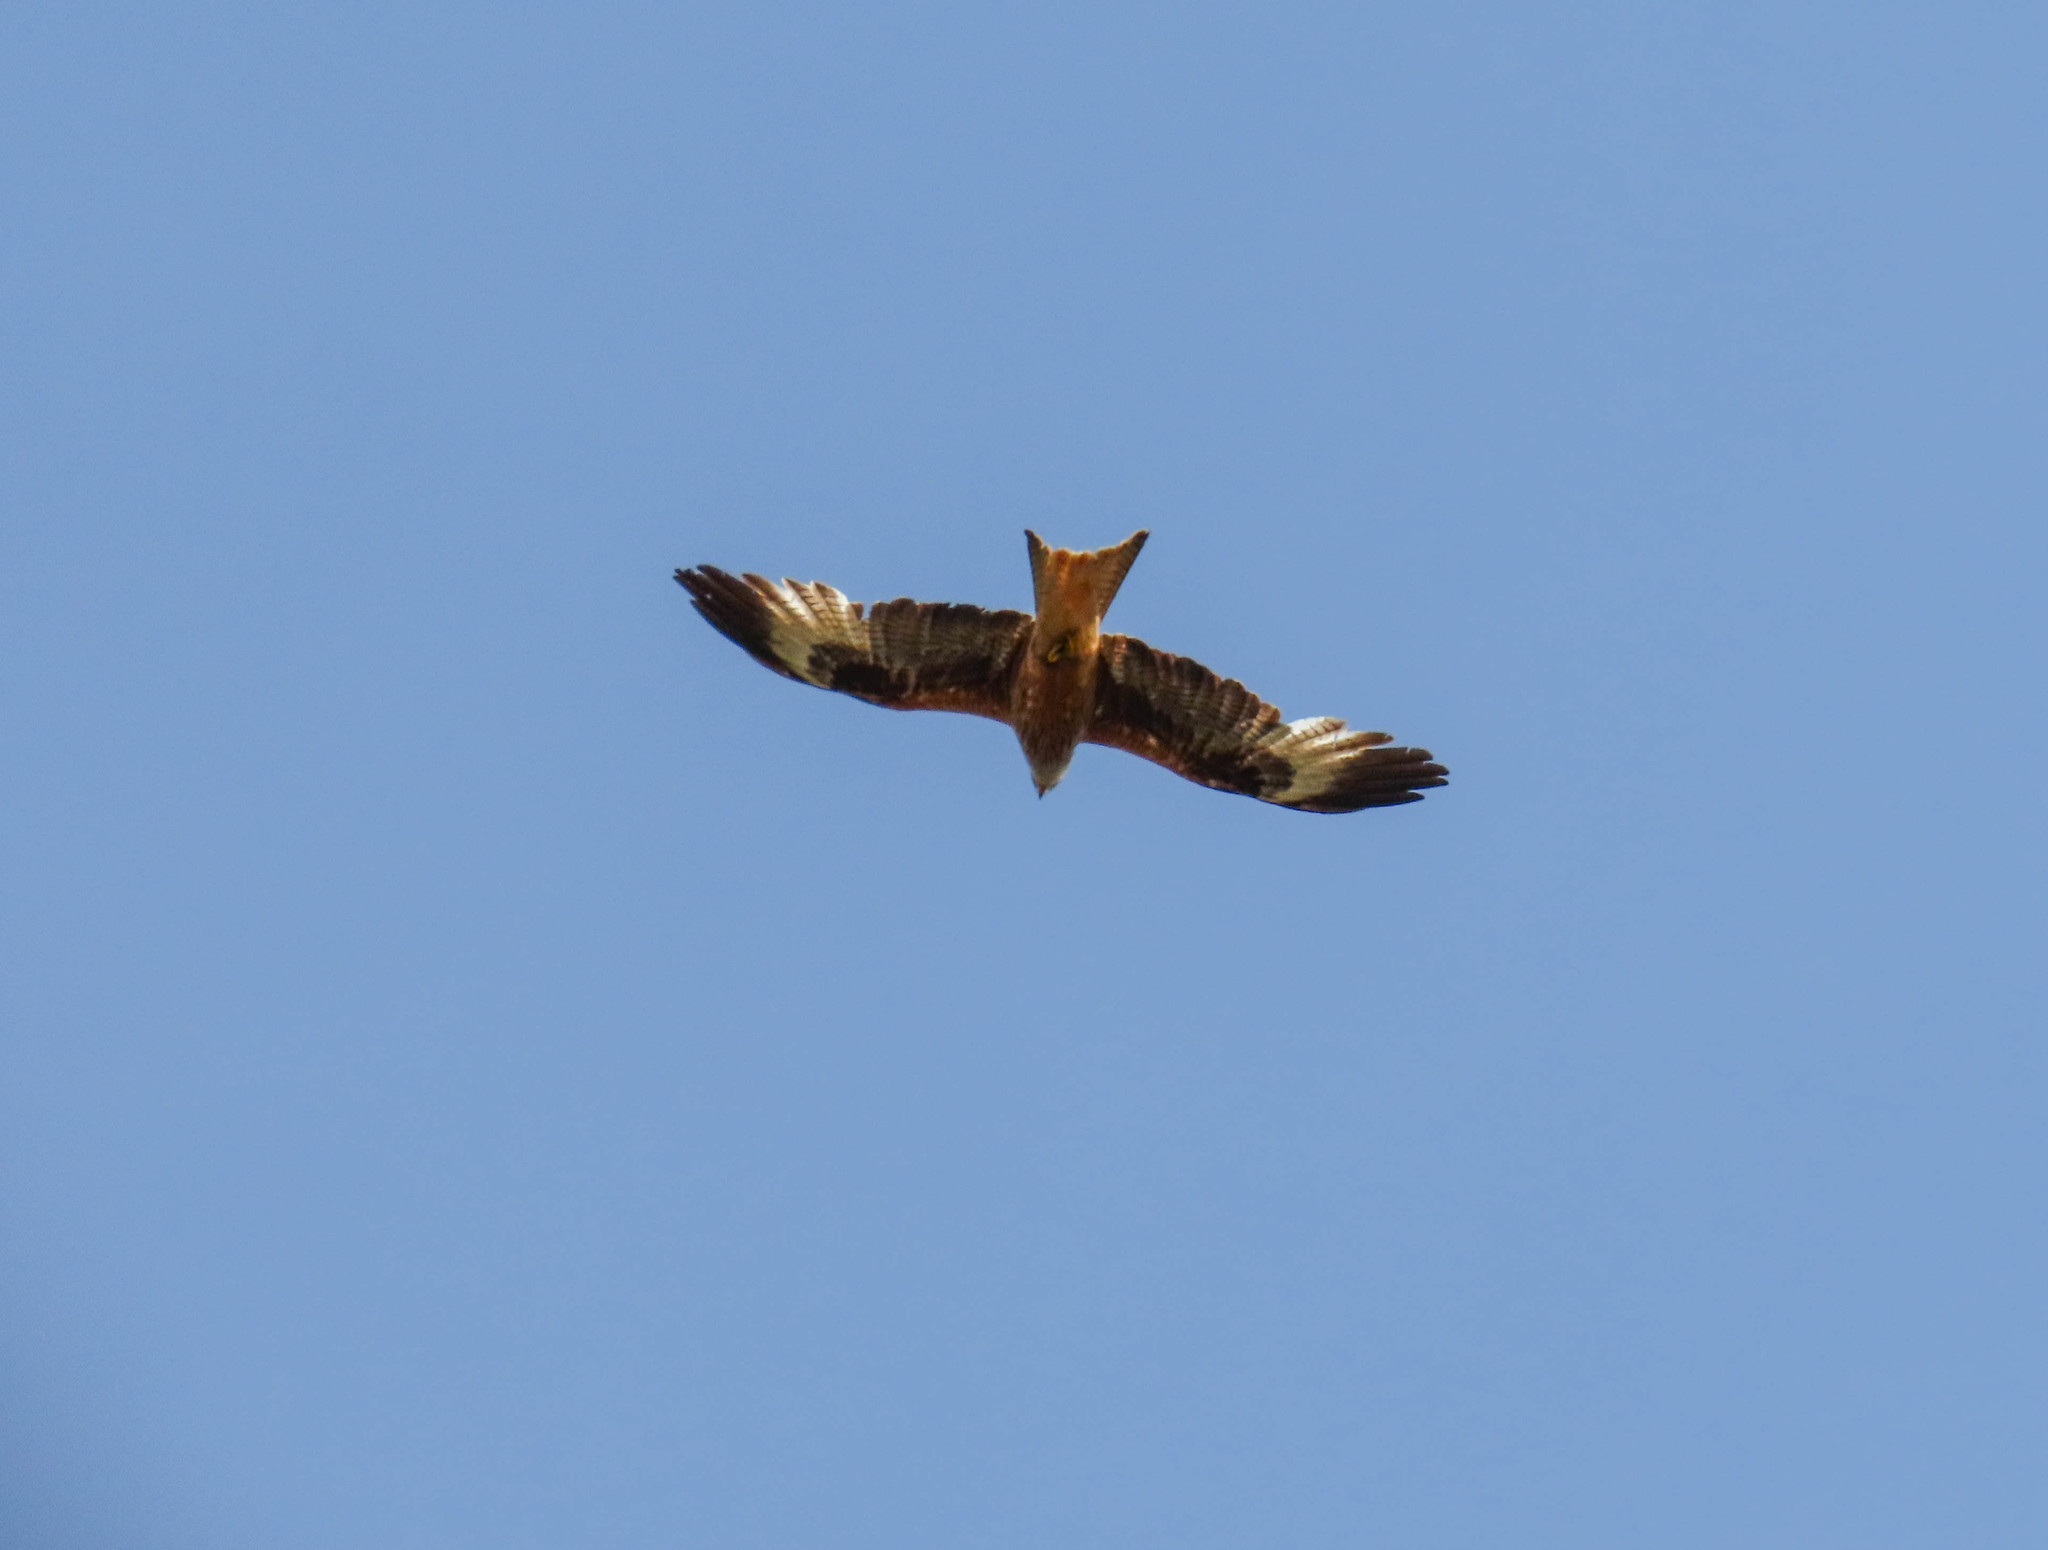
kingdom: Animalia
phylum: Chordata
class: Aves
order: Accipitriformes
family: Accipitridae
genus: Milvus
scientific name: Milvus milvus
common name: Red kite
